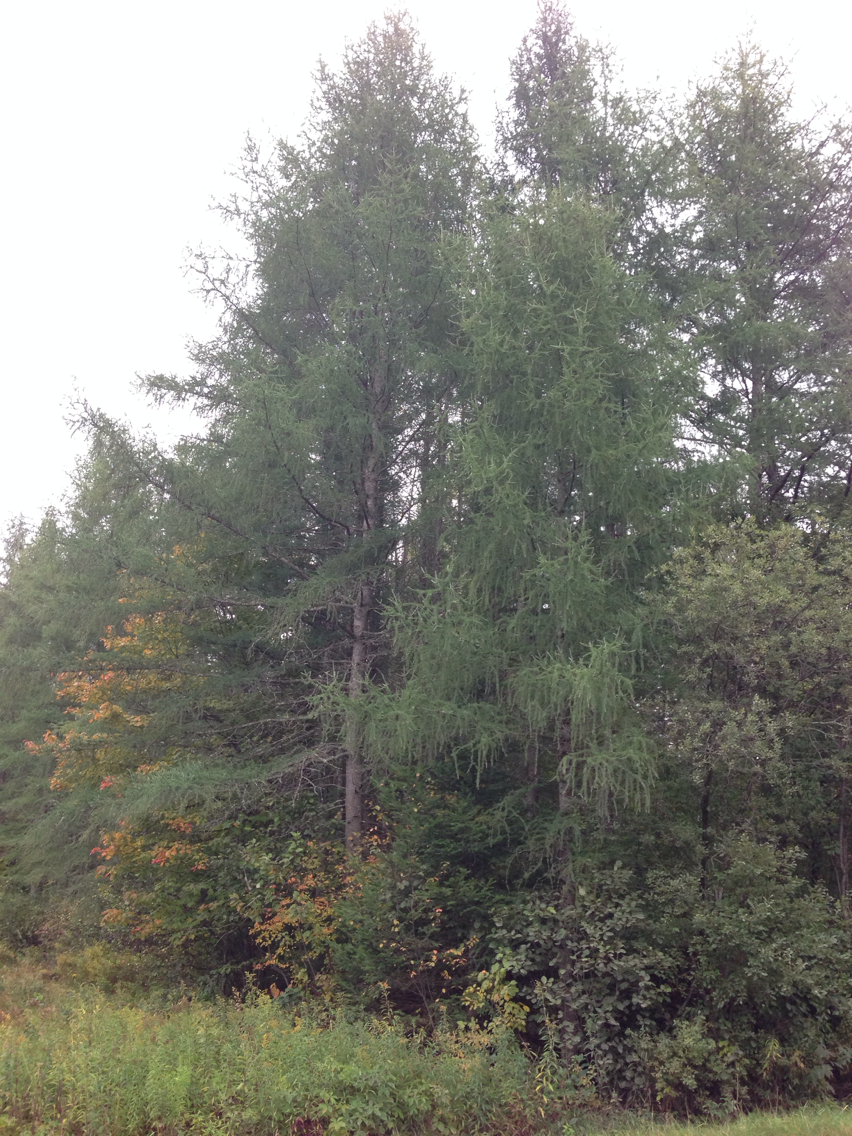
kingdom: Plantae
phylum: Tracheophyta
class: Pinopsida
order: Pinales
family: Pinaceae
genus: Larix
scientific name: Larix laricina
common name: American larch
